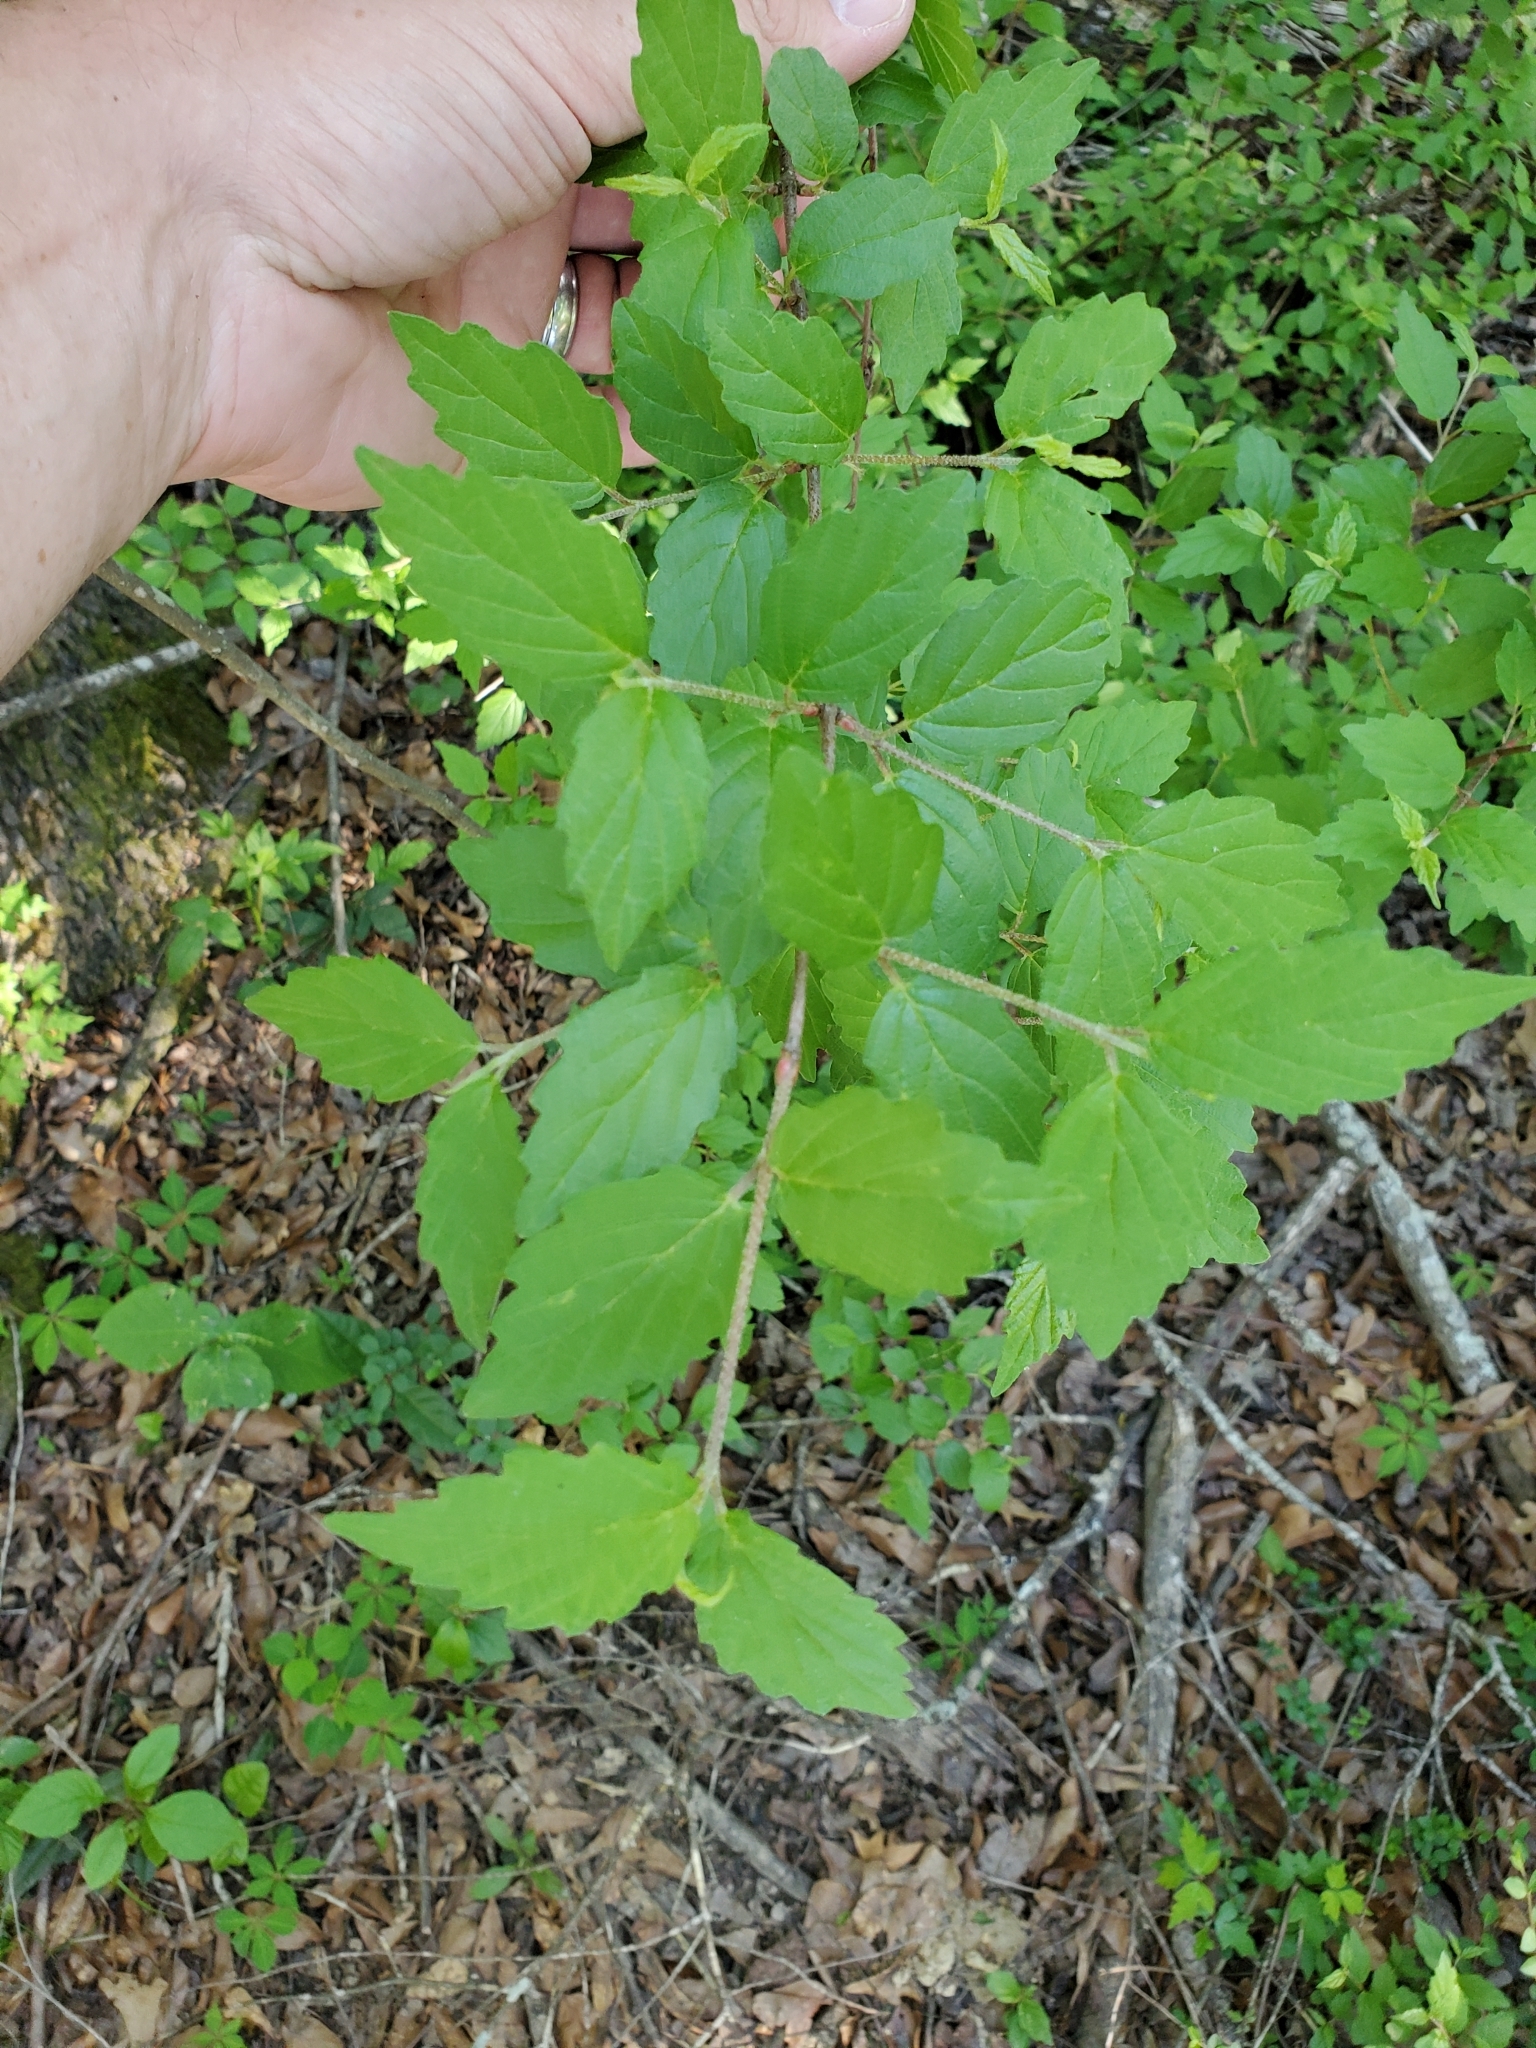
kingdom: Plantae
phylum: Tracheophyta
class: Magnoliopsida
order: Dipsacales
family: Viburnaceae
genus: Viburnum
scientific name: Viburnum scabrellum
